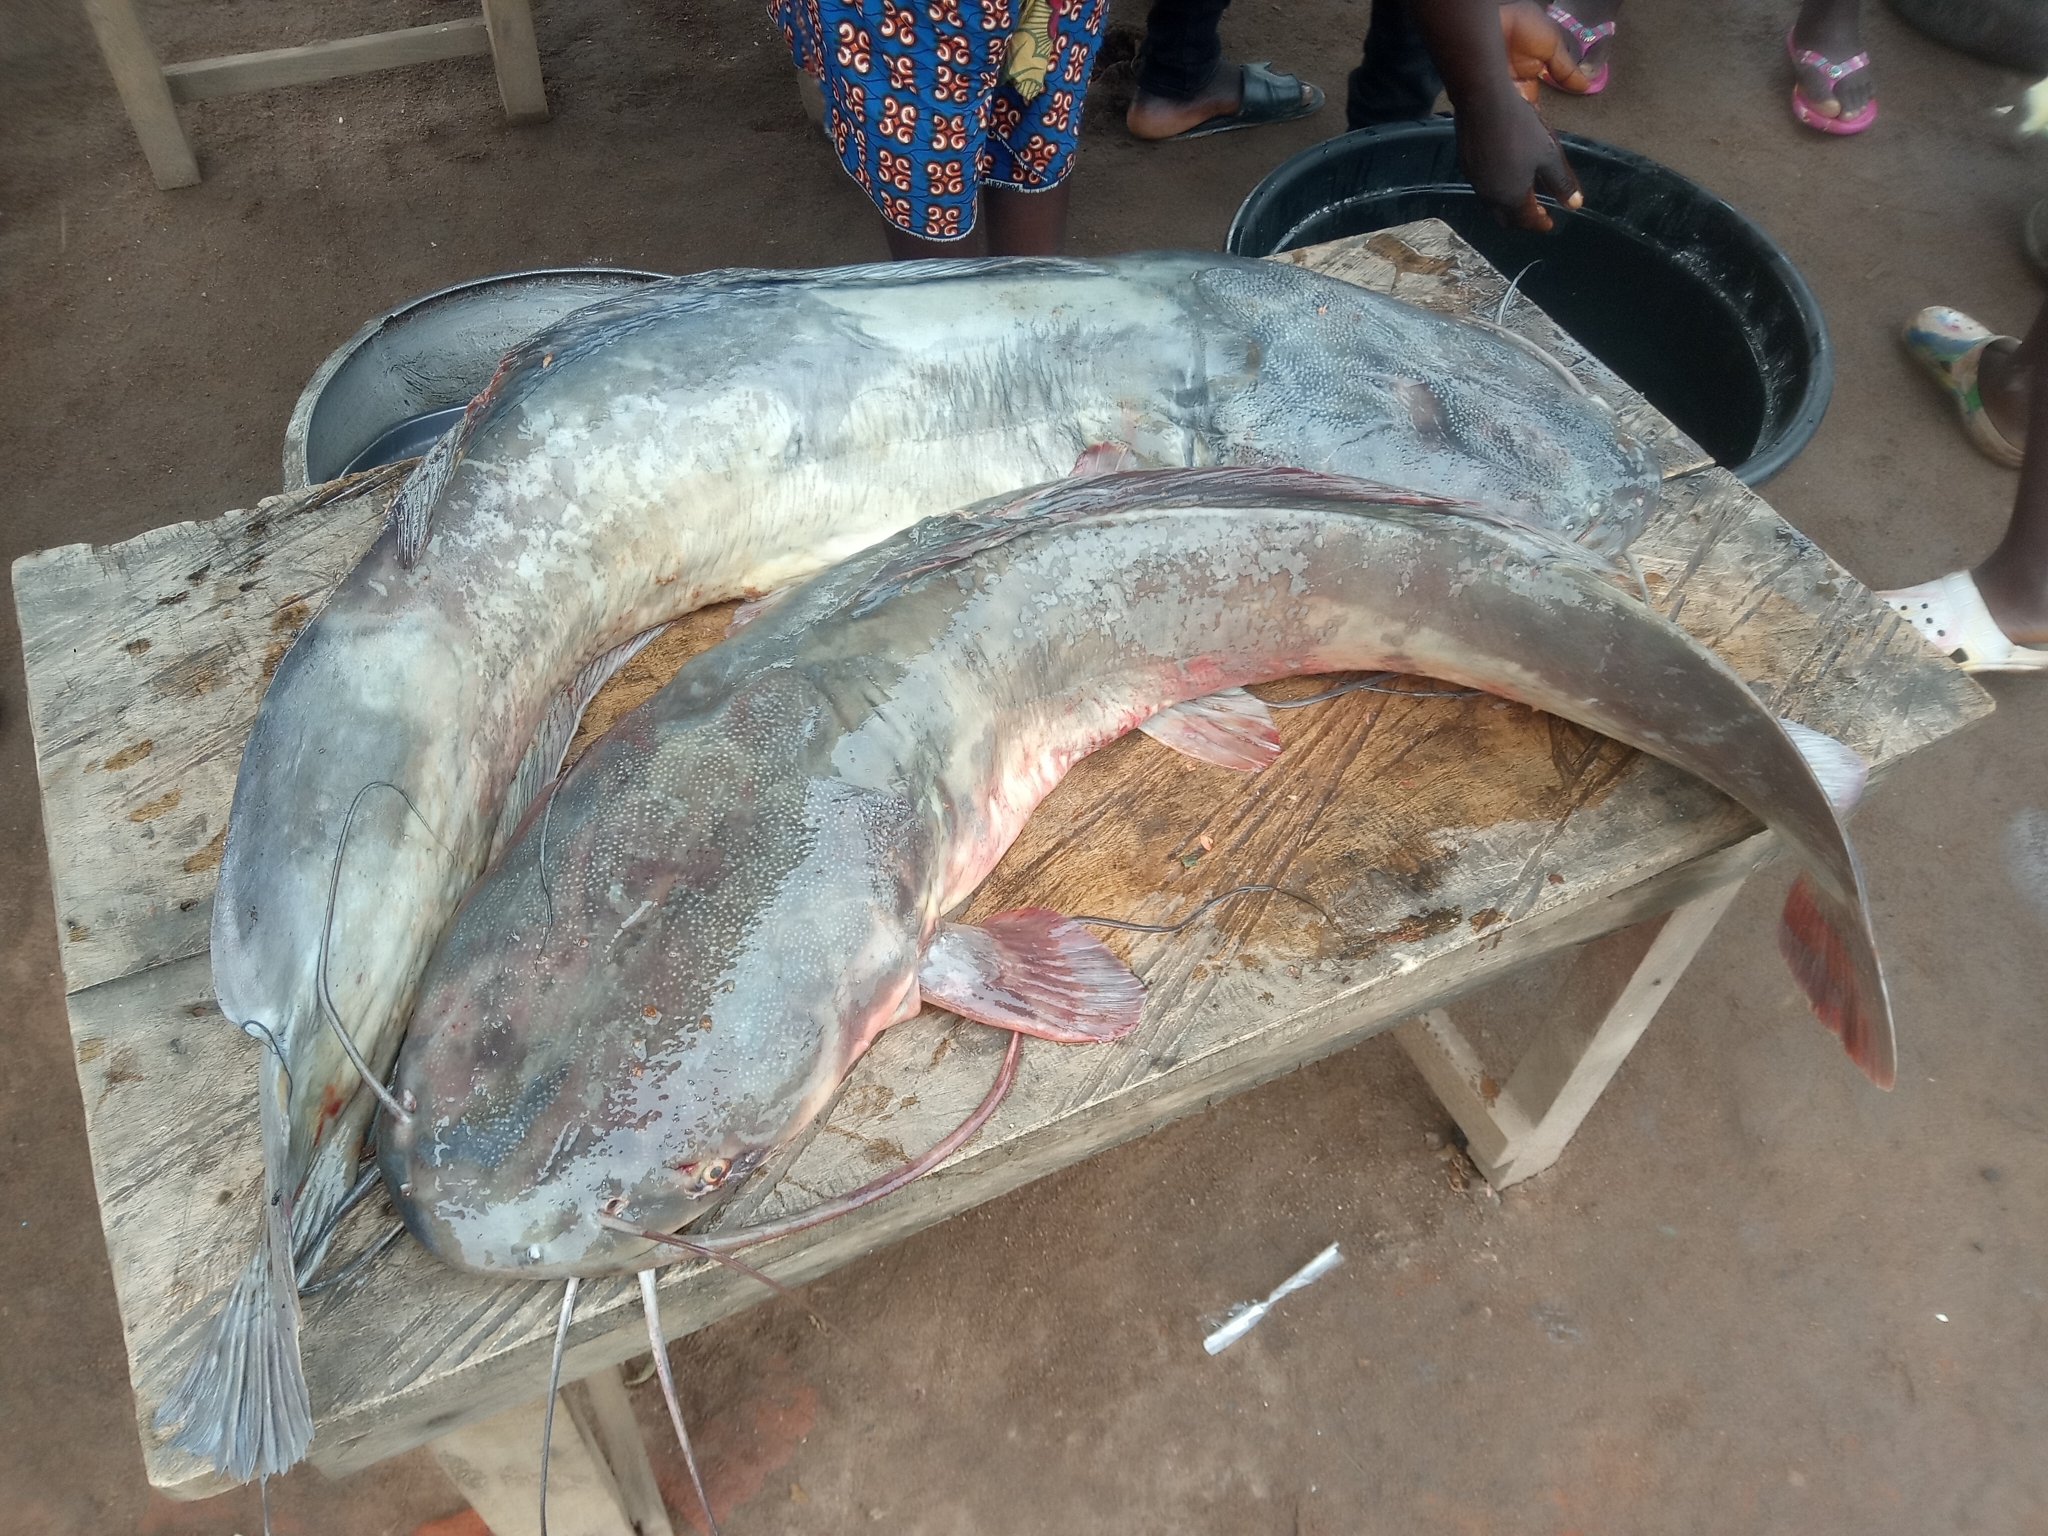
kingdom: Animalia
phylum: Chordata
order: Siluriformes
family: Clariidae
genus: Clarias
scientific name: Clarias gariepinus
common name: African catfish
